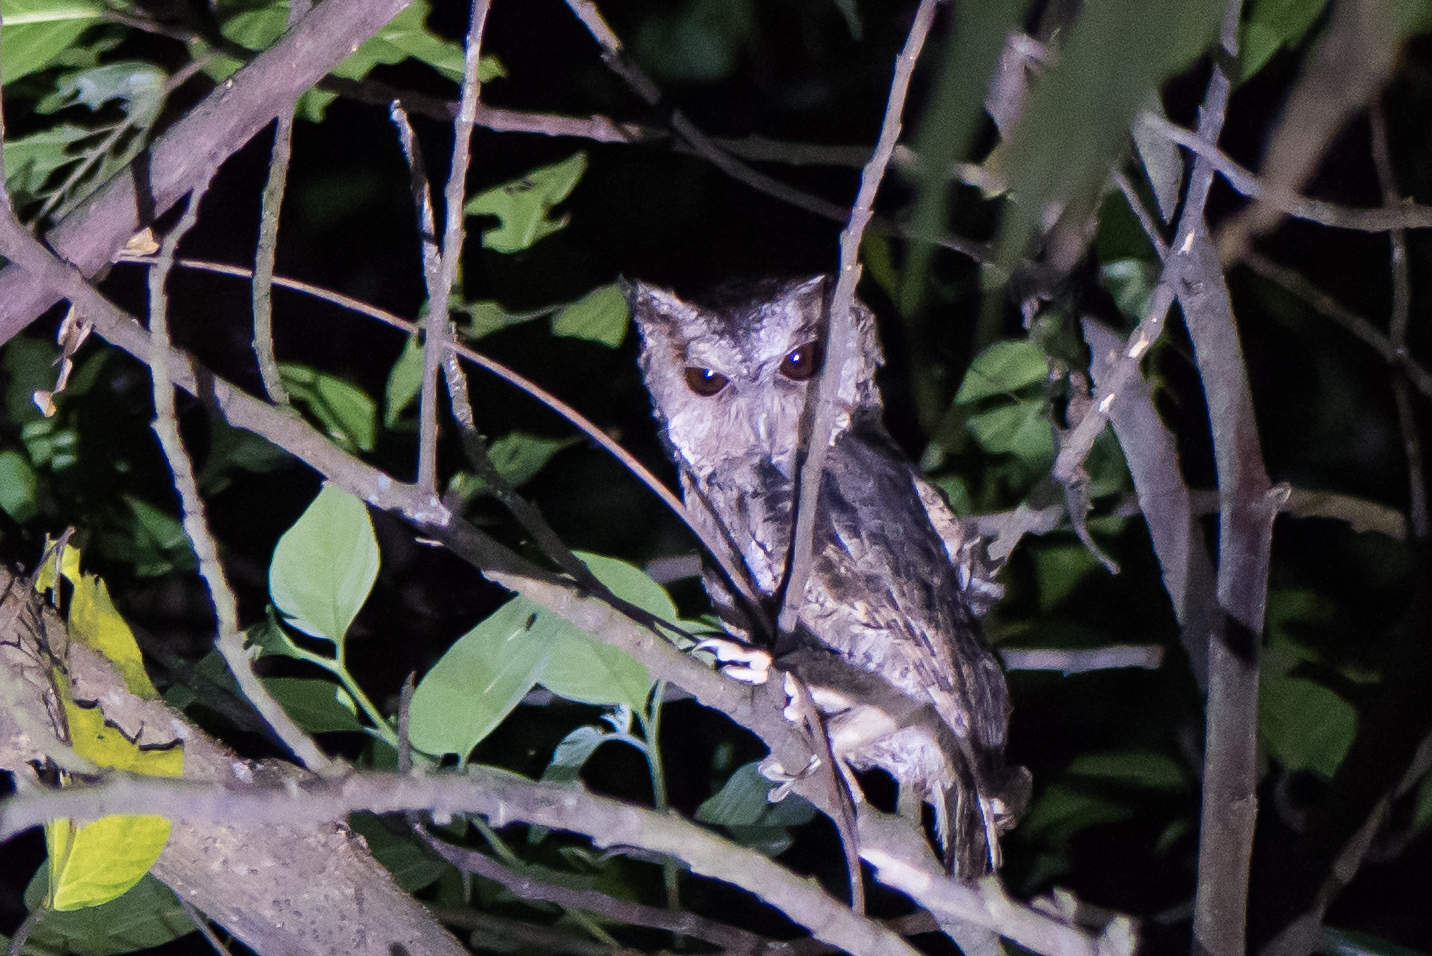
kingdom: Animalia
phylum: Chordata
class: Aves
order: Strigiformes
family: Strigidae
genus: Otus
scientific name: Otus lettia
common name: Collared scops owl
